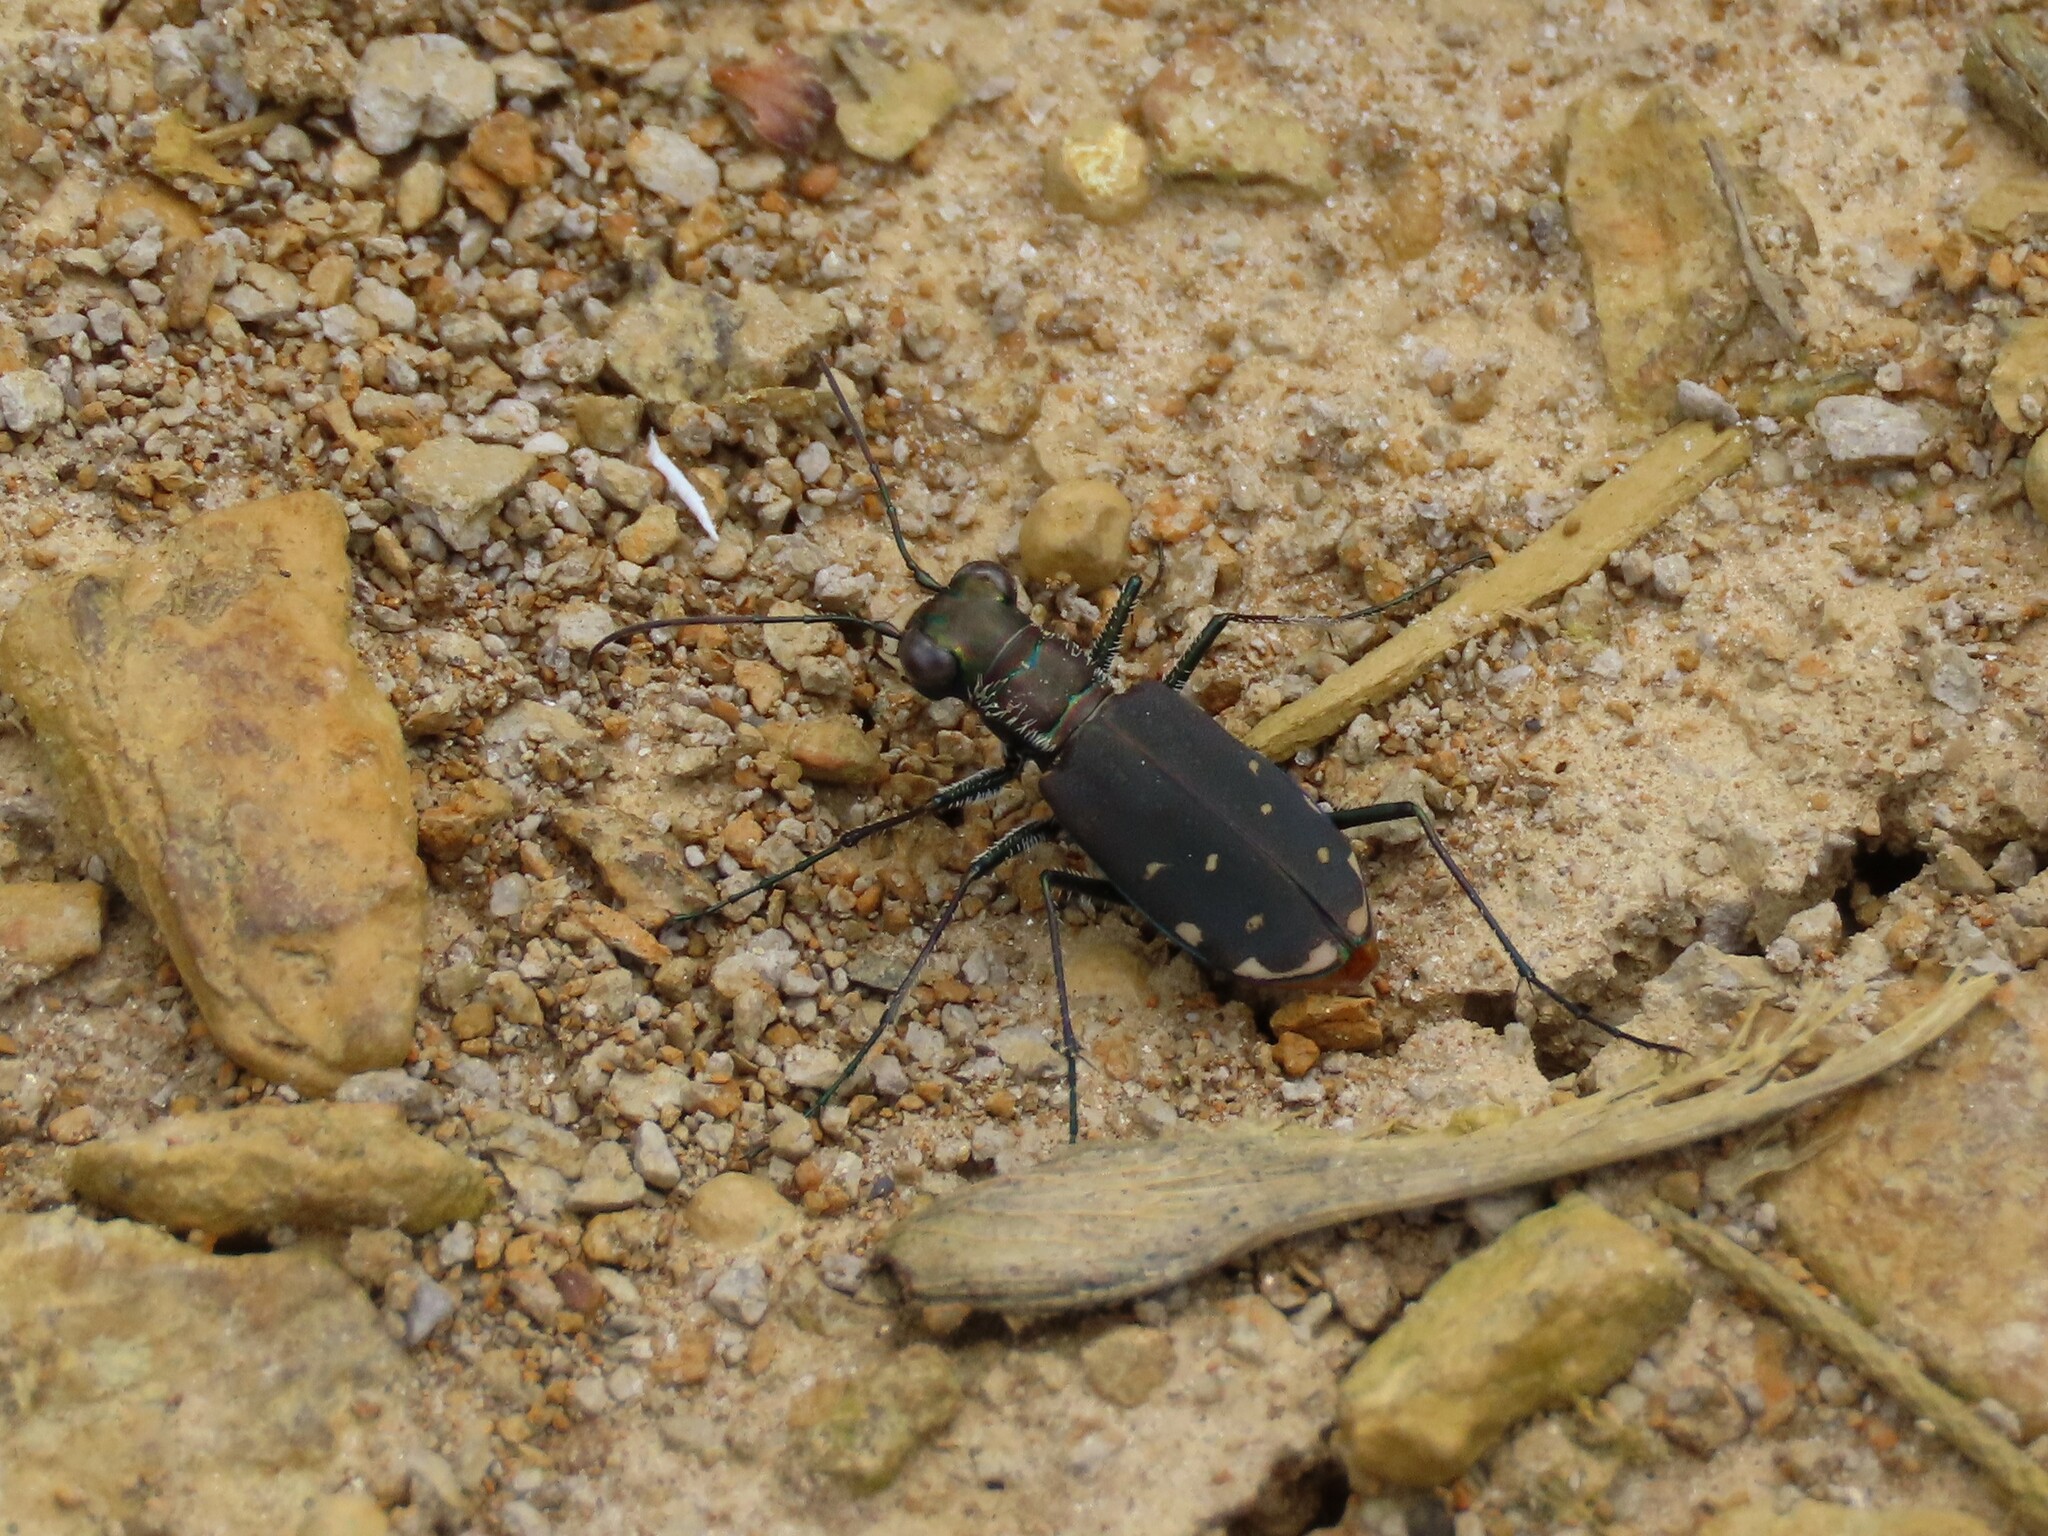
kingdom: Animalia
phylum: Arthropoda
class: Insecta
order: Coleoptera
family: Carabidae
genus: Cicindela
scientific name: Cicindela rufiventris
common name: Eastern red-bellied tiger beetle
